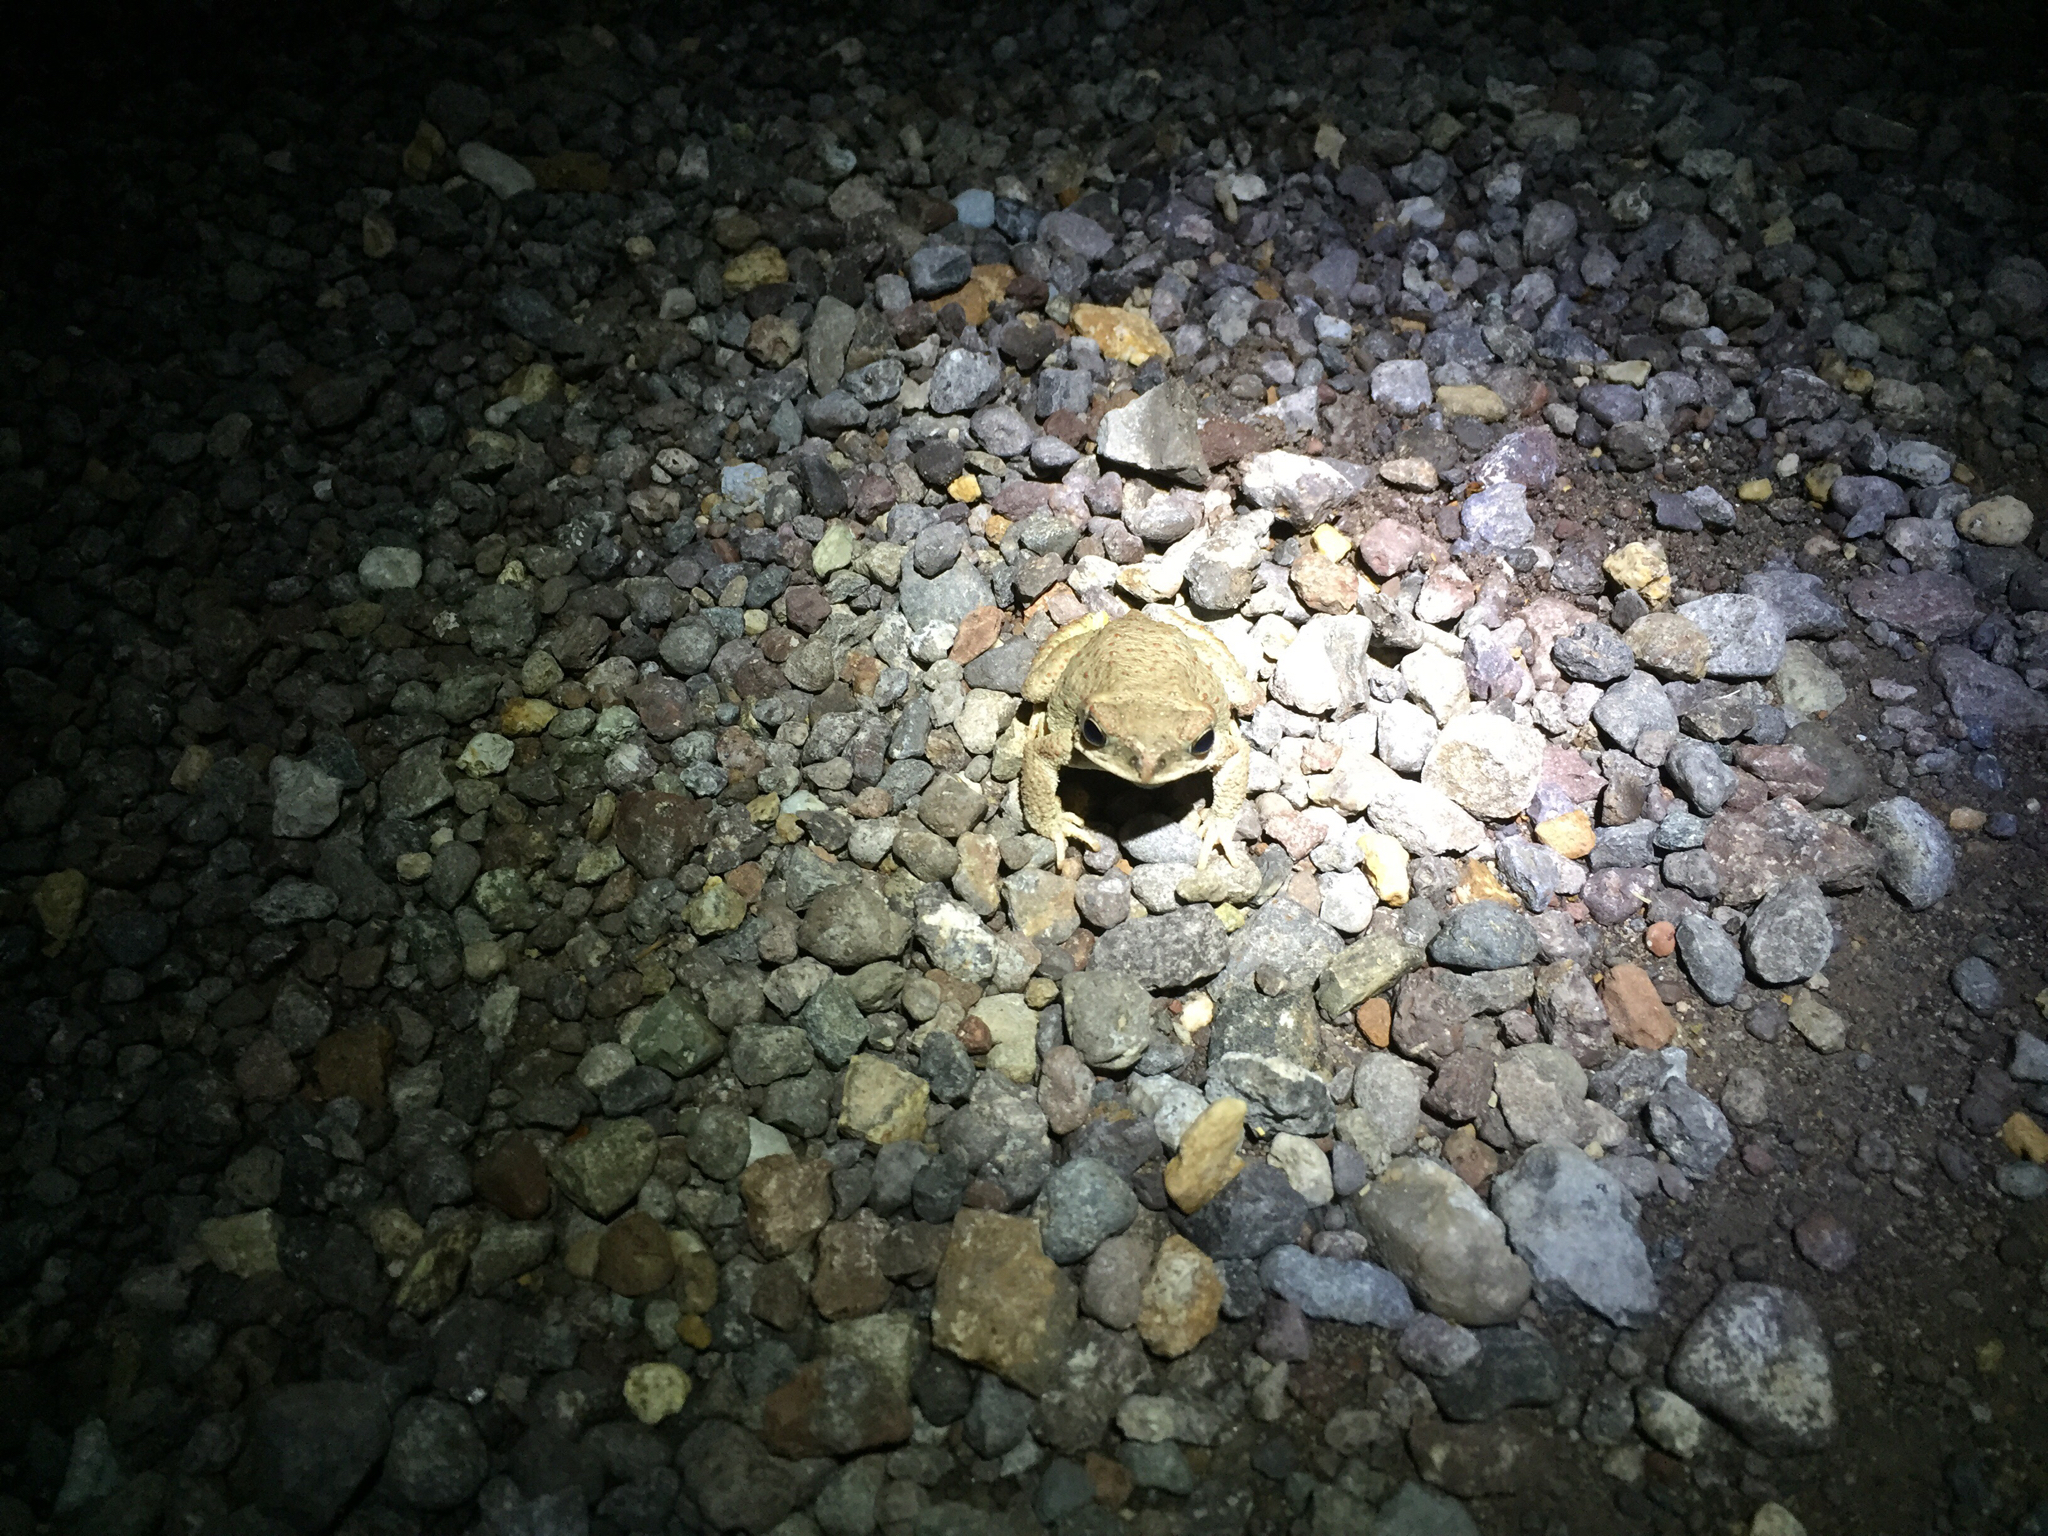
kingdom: Animalia
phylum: Chordata
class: Amphibia
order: Anura
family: Bufonidae
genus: Anaxyrus
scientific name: Anaxyrus punctatus
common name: Red-spotted toad
